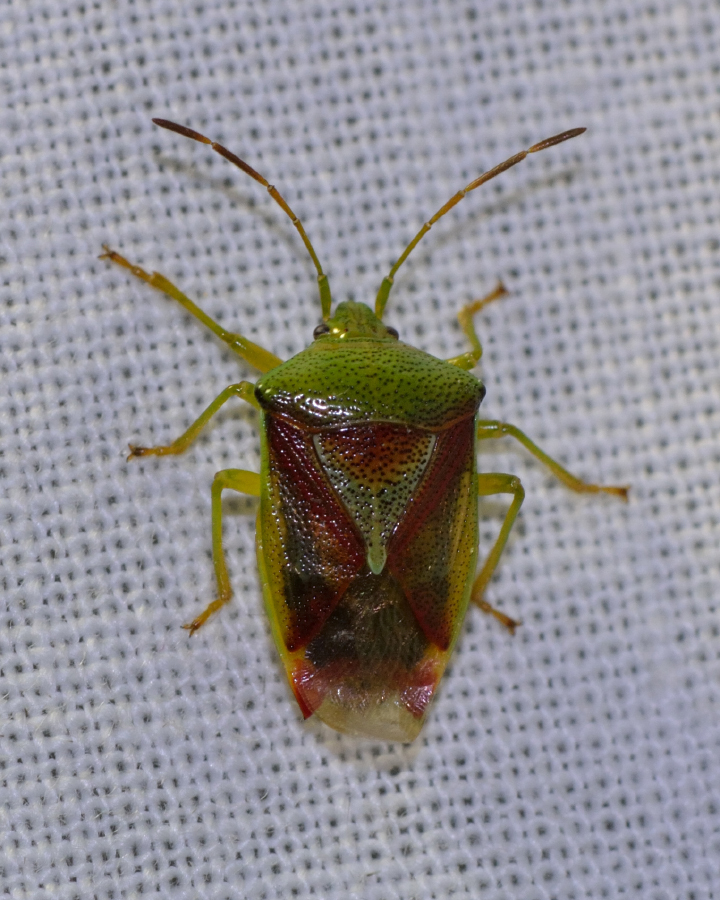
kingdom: Animalia
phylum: Arthropoda
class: Insecta
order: Hemiptera
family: Acanthosomatidae
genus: Elasmostethus
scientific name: Elasmostethus
